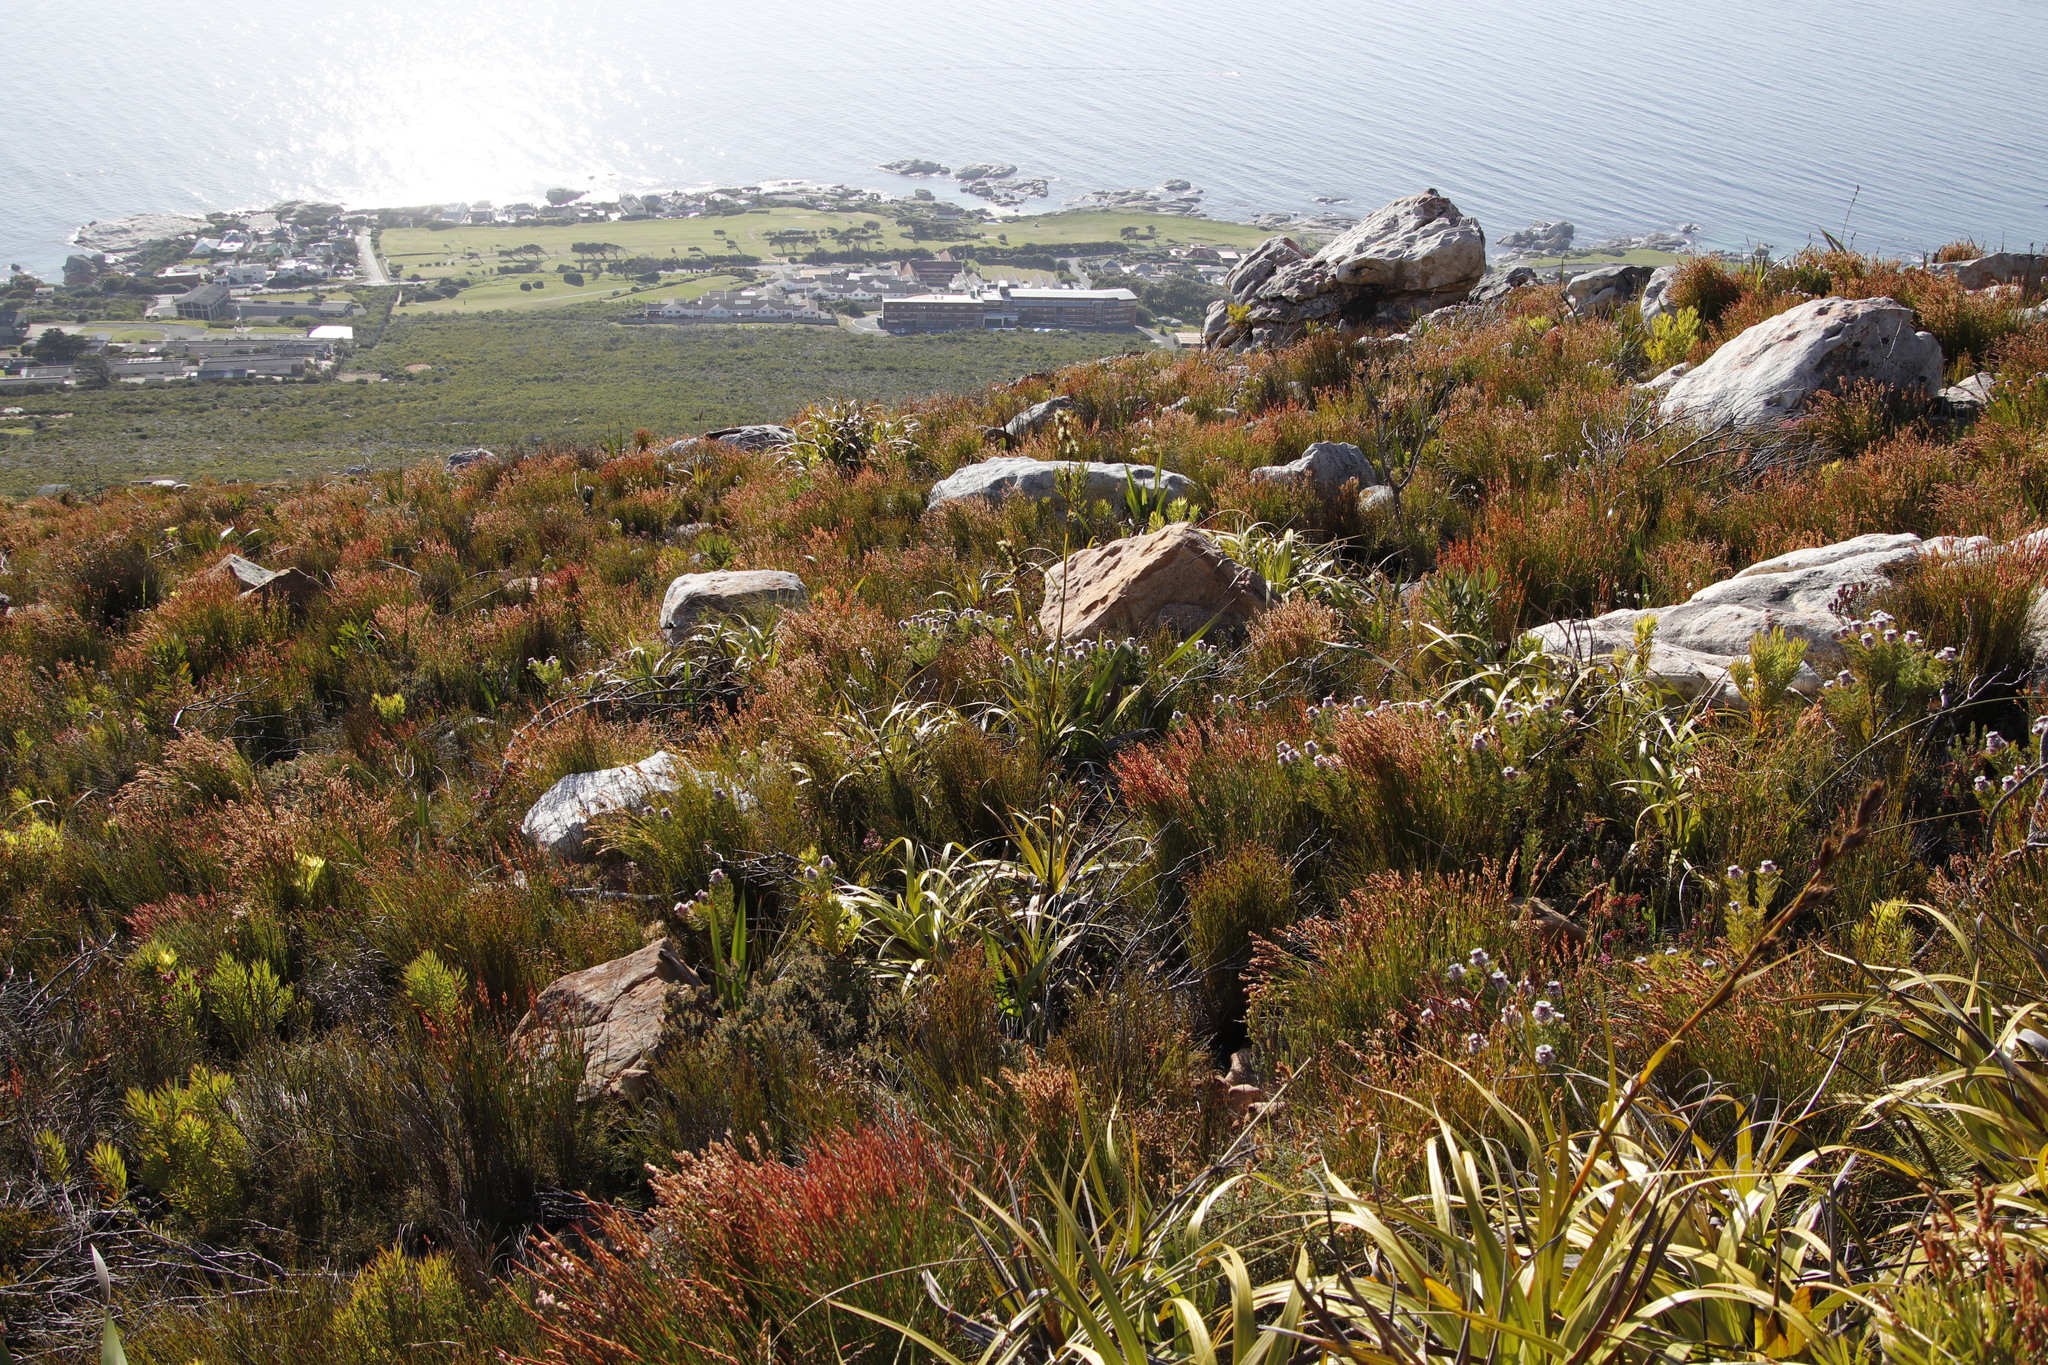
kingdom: Plantae
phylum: Tracheophyta
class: Liliopsida
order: Poales
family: Cyperaceae
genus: Tetraria
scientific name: Tetraria thermalis
